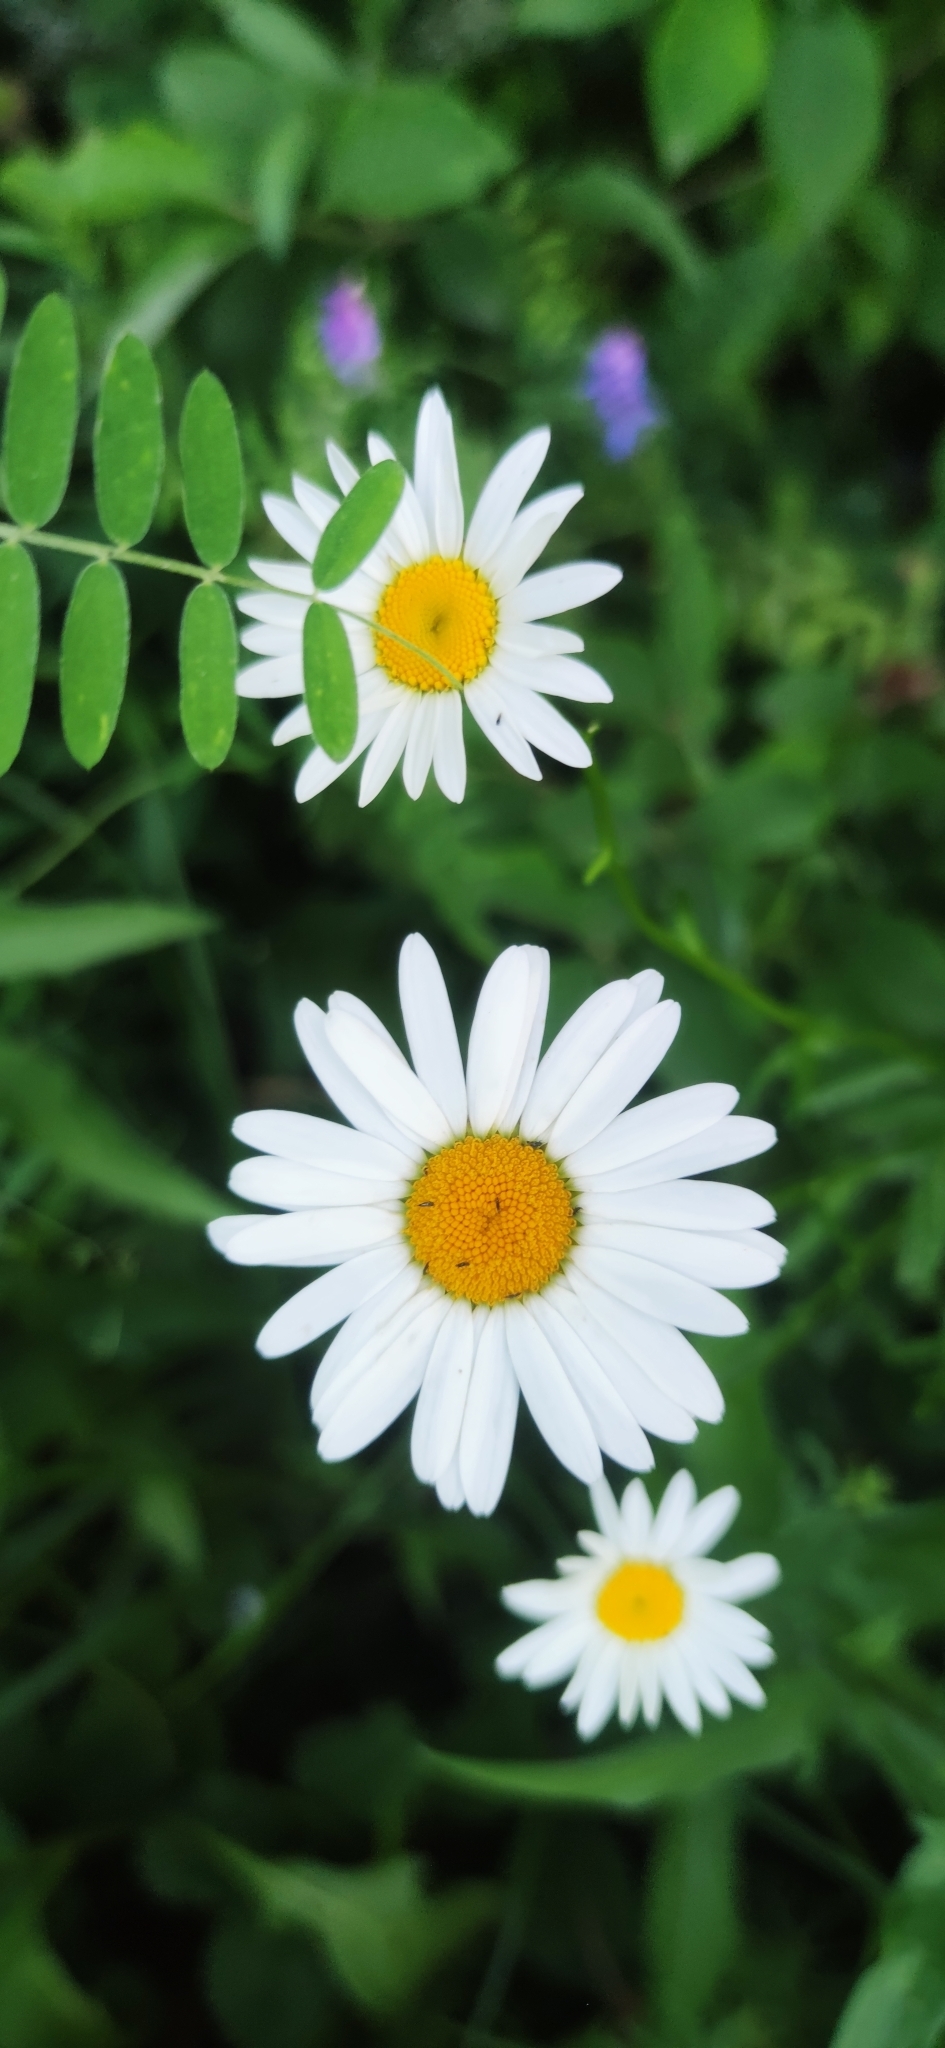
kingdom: Plantae
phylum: Tracheophyta
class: Magnoliopsida
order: Asterales
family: Asteraceae
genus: Leucanthemum
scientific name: Leucanthemum vulgare
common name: Oxeye daisy
